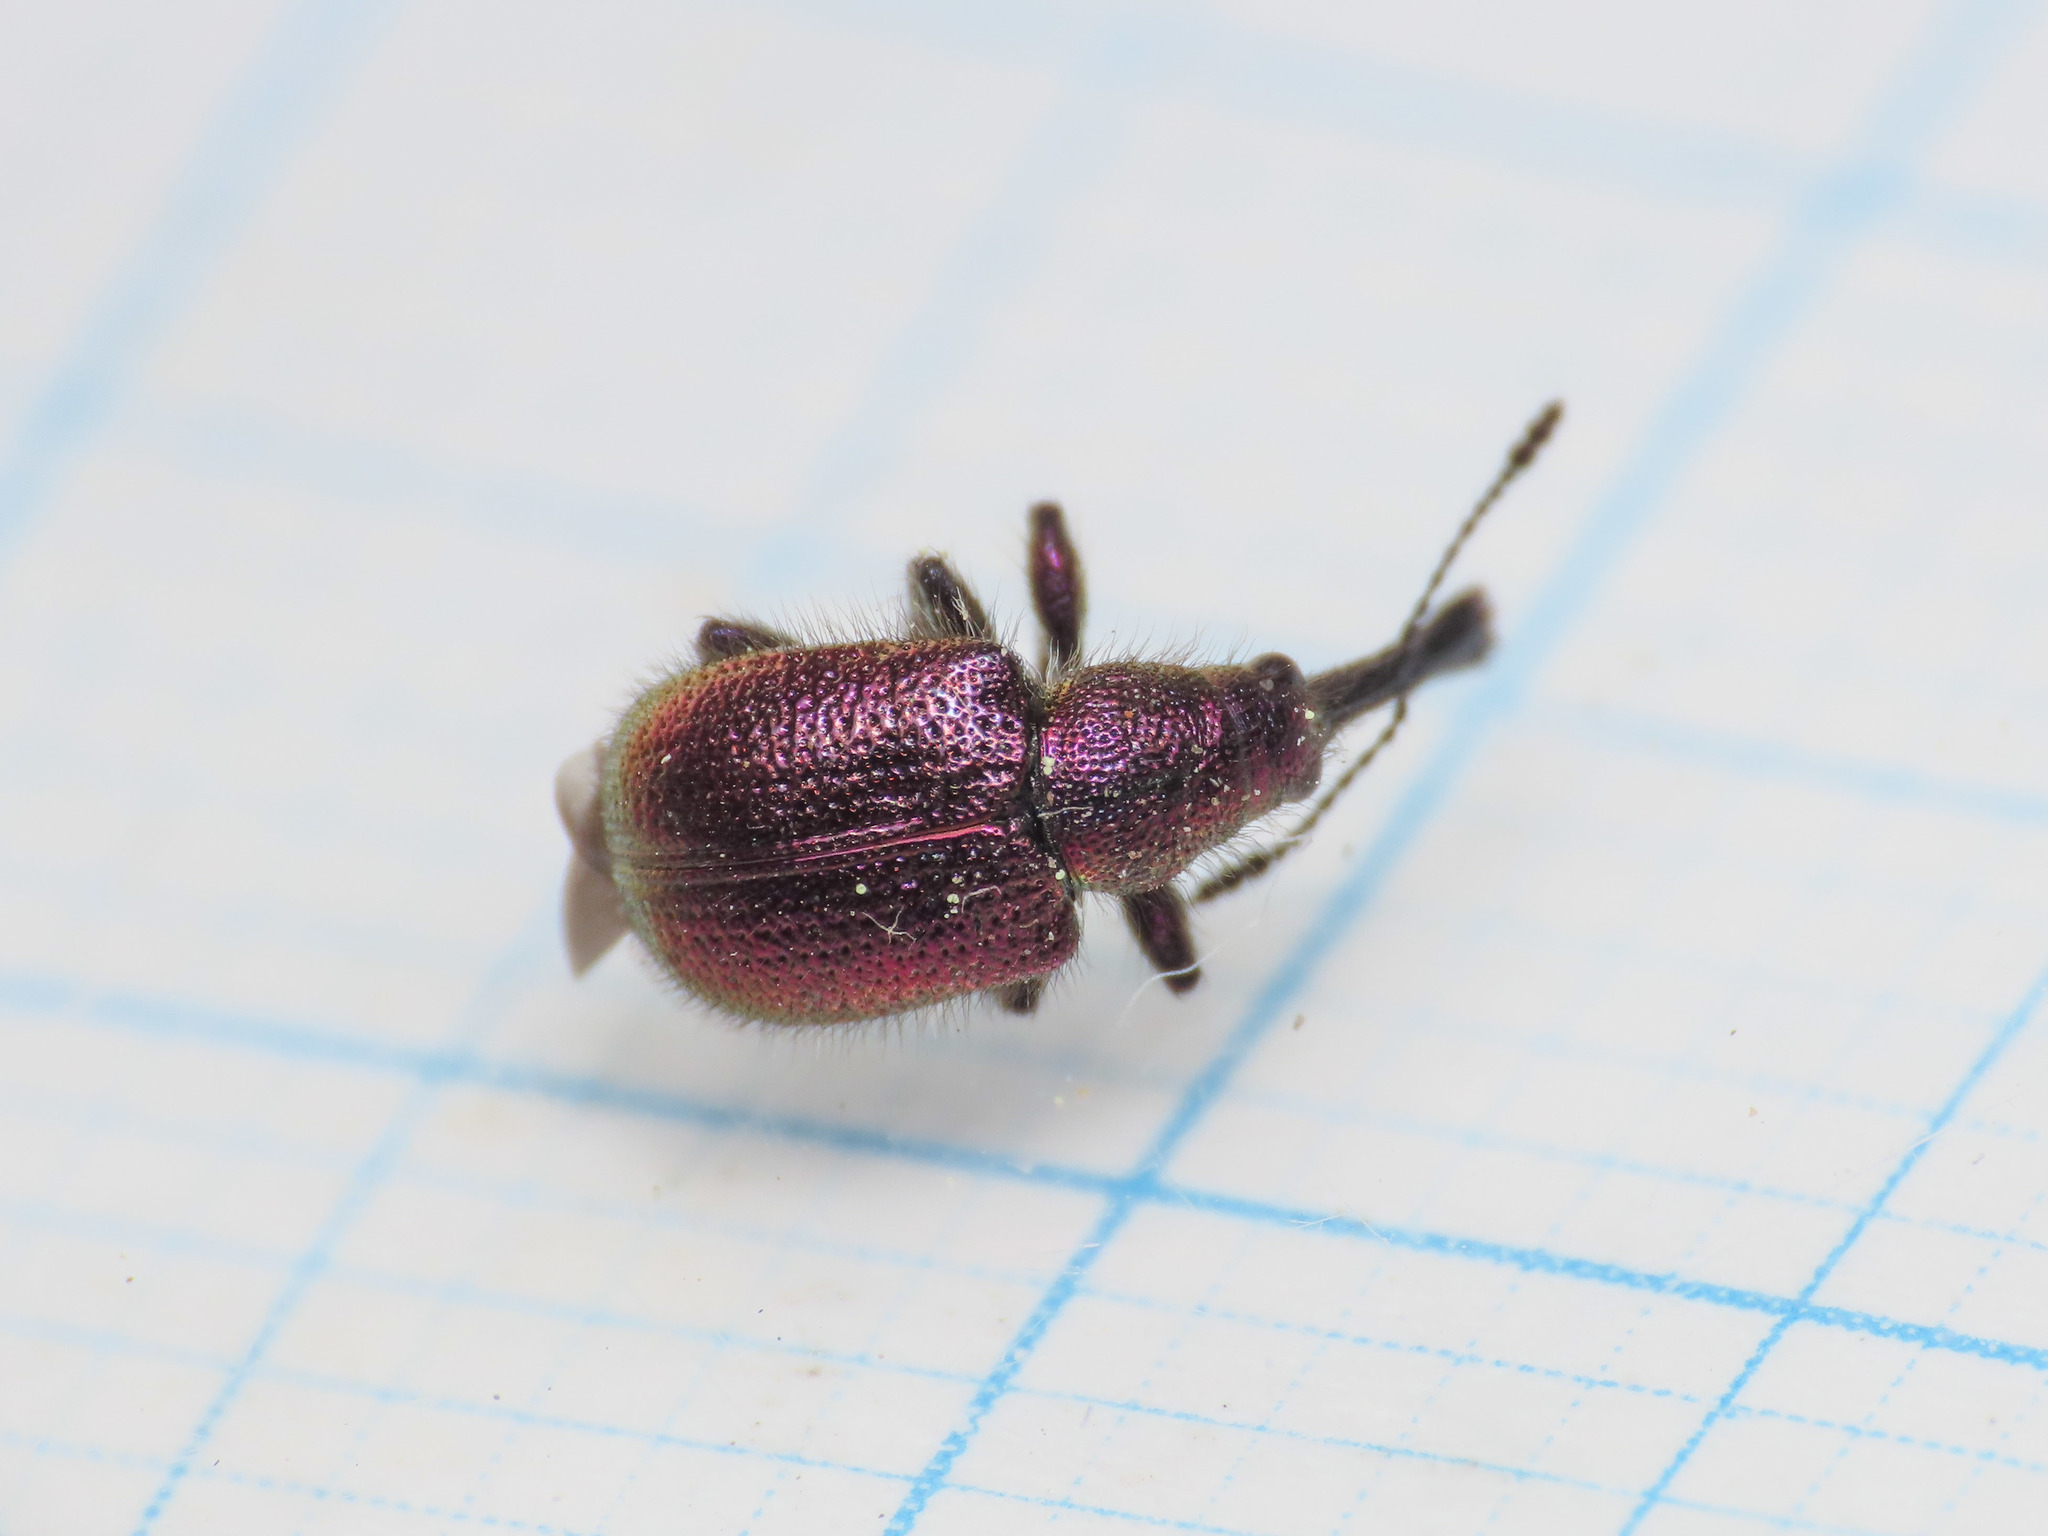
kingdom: Animalia
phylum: Arthropoda
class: Insecta
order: Coleoptera
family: Attelabidae
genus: Rhynchites
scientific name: Rhynchites bacchus
